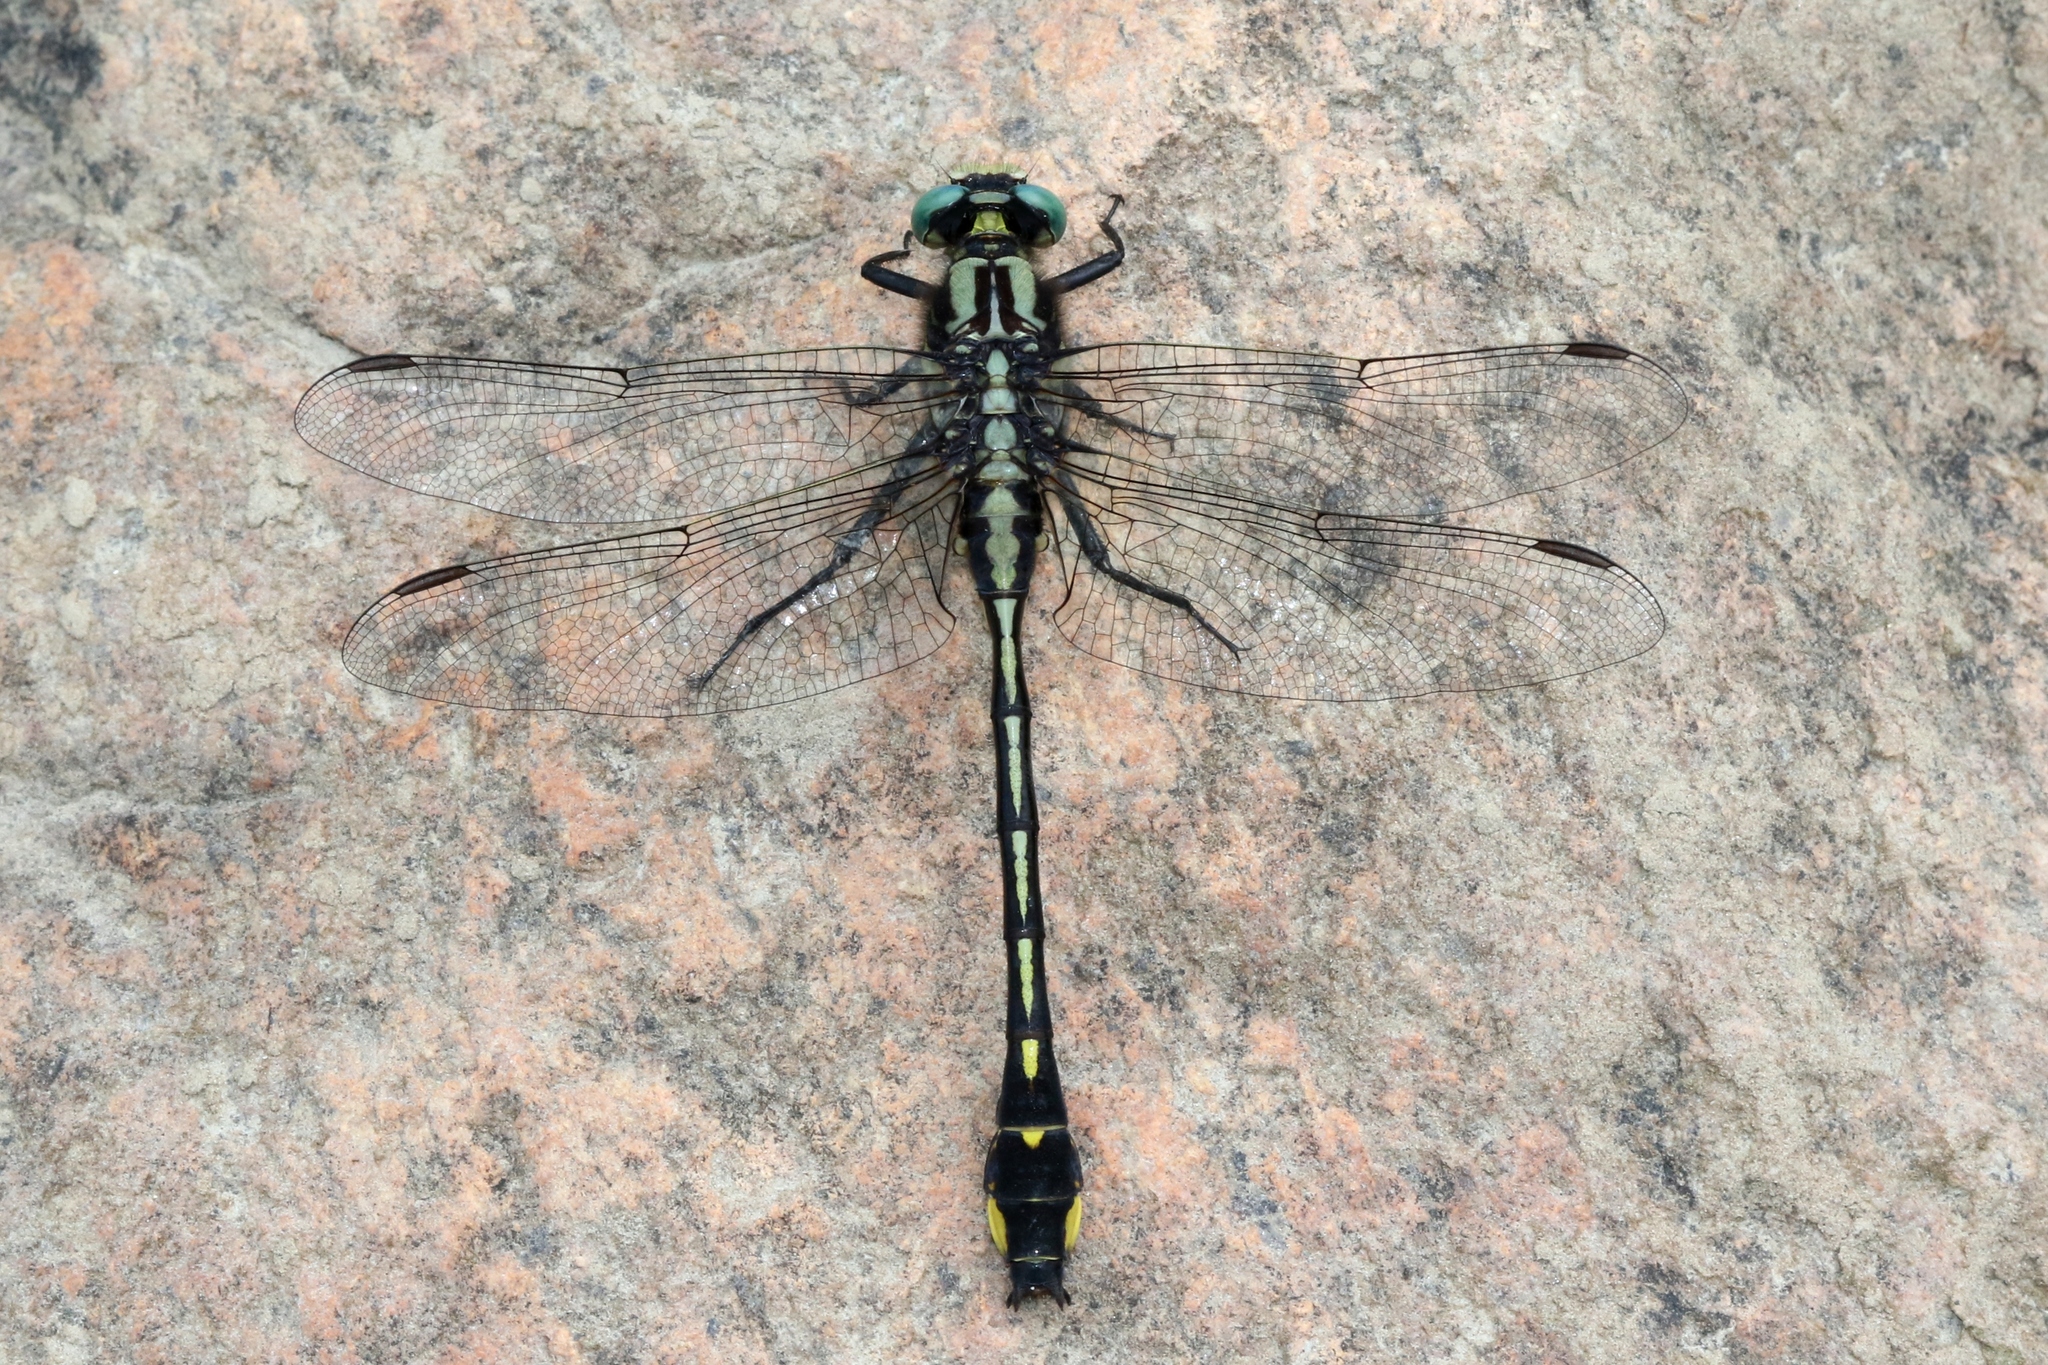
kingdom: Animalia
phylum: Arthropoda
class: Insecta
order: Odonata
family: Gomphidae
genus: Gomphurus
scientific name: Gomphurus fraternus
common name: Midland clubtail
